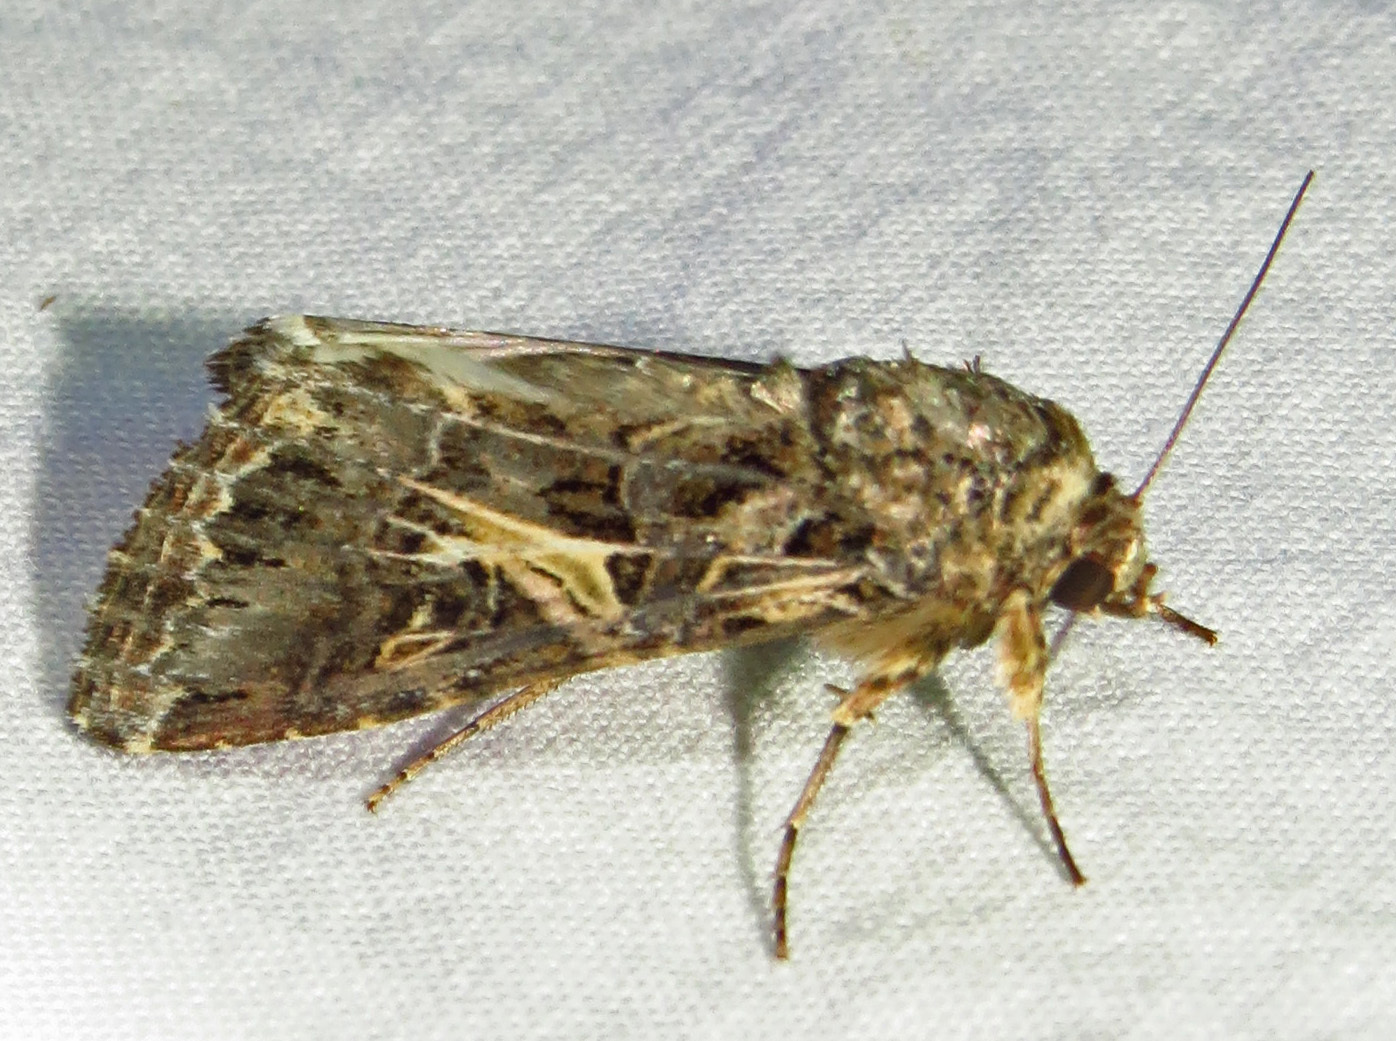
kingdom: Animalia
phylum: Arthropoda
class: Insecta
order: Lepidoptera
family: Noctuidae
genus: Spodoptera
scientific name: Spodoptera ornithogalli
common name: Yellow-striped armyworm
